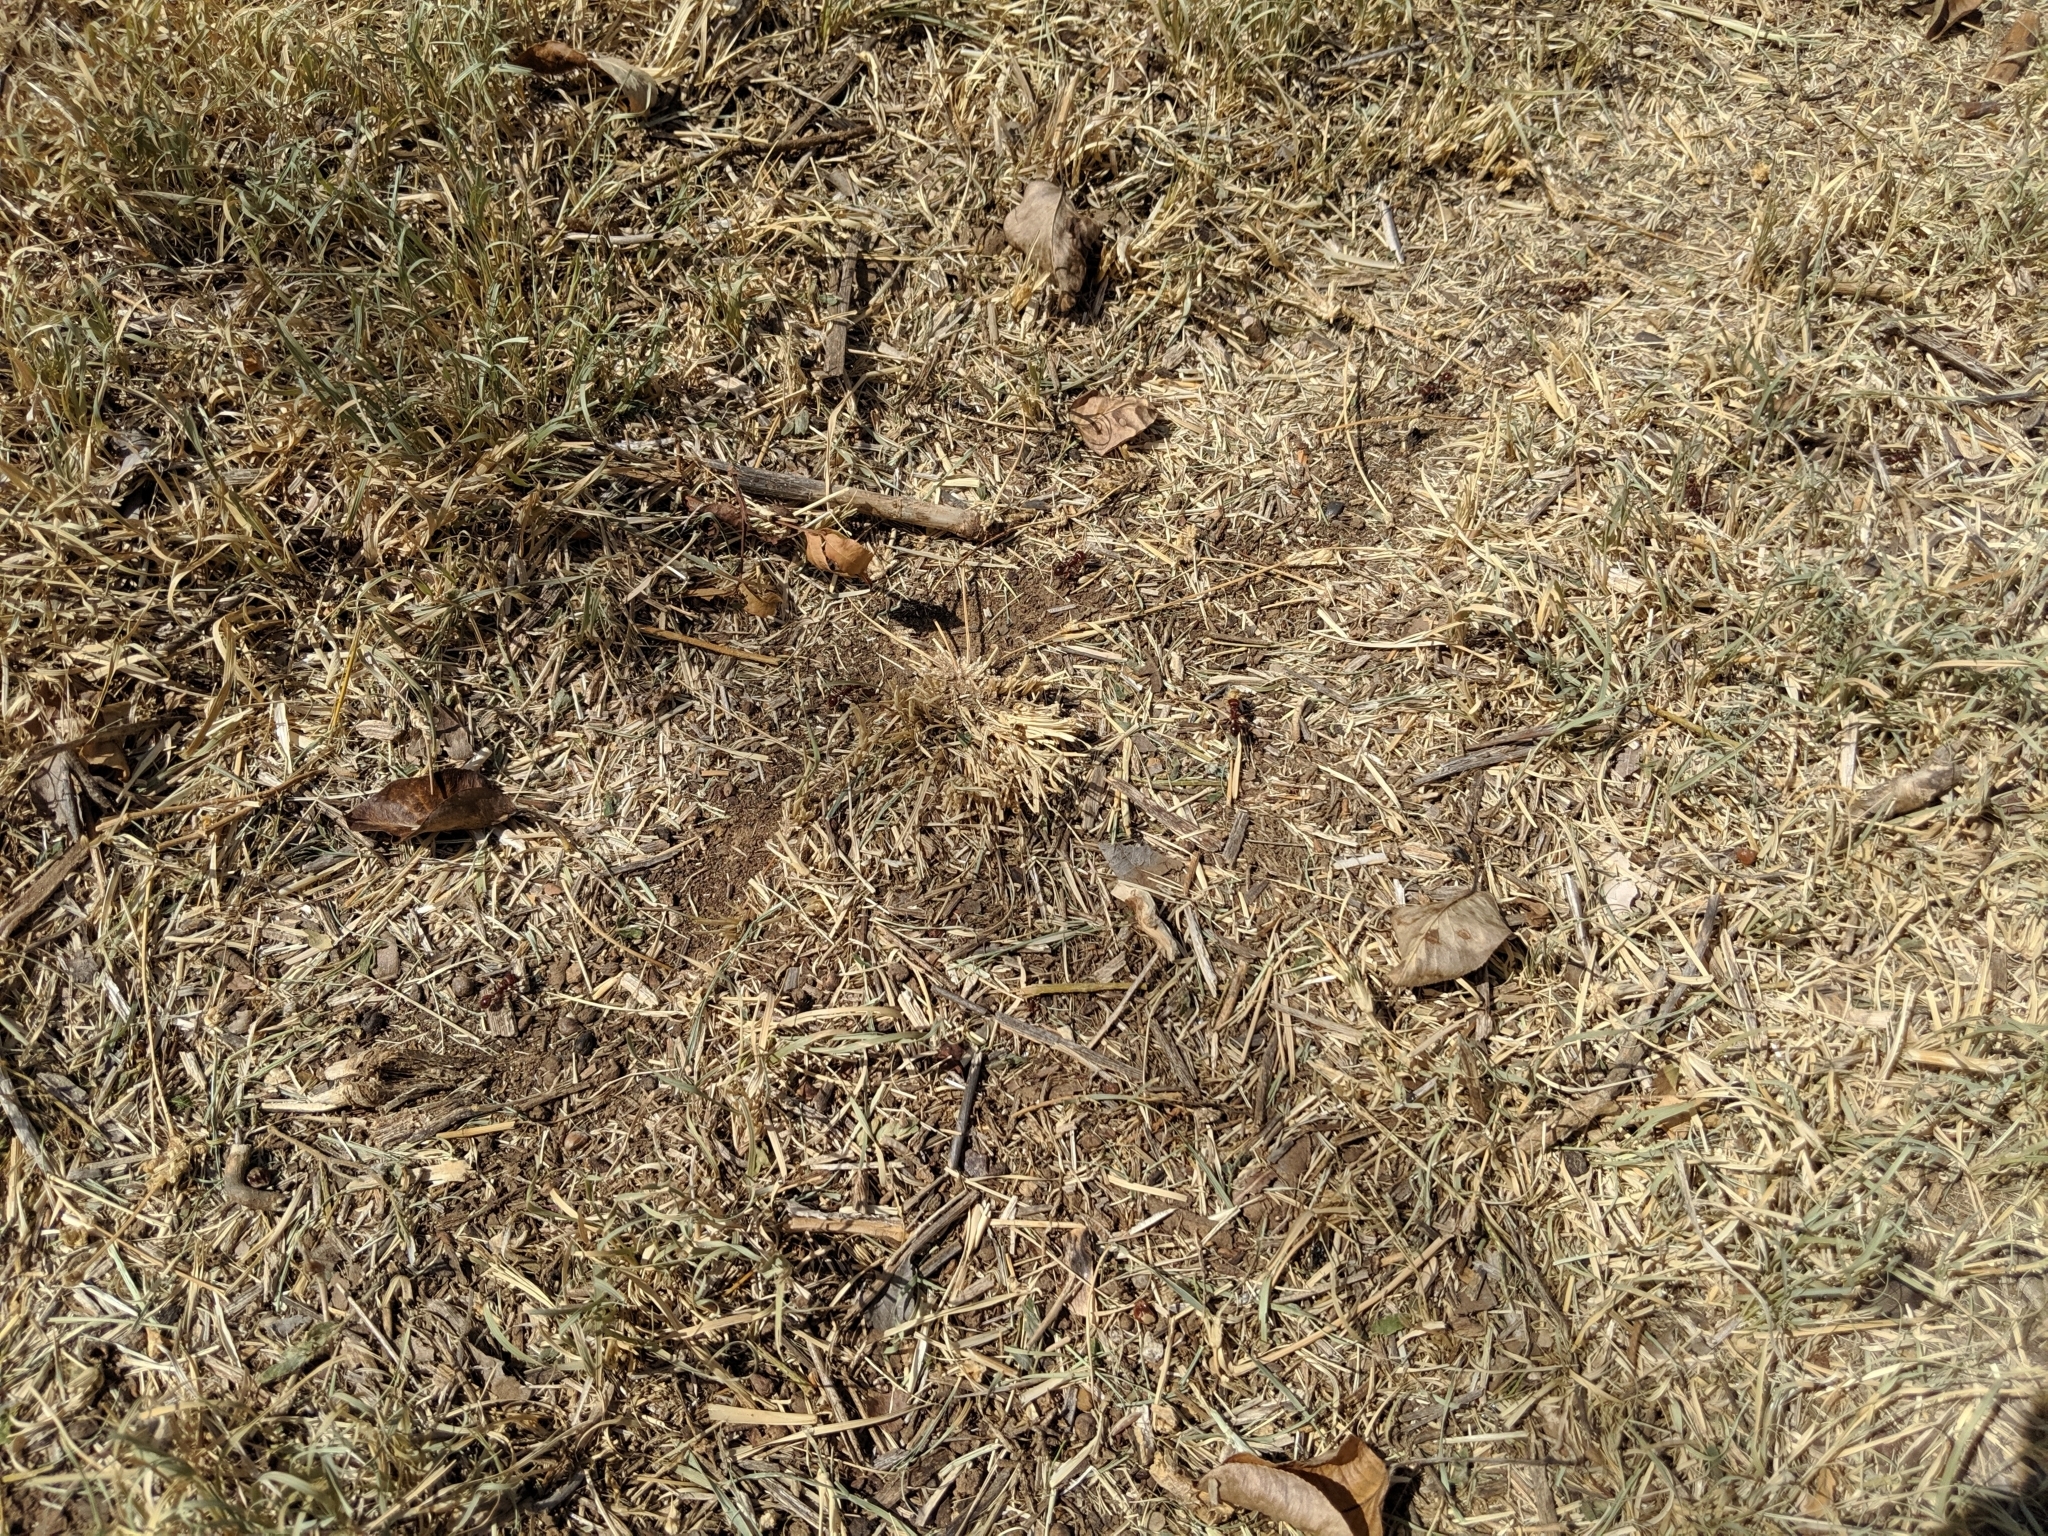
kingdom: Animalia
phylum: Arthropoda
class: Insecta
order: Hymenoptera
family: Formicidae
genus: Pogonomyrmex
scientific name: Pogonomyrmex barbatus
